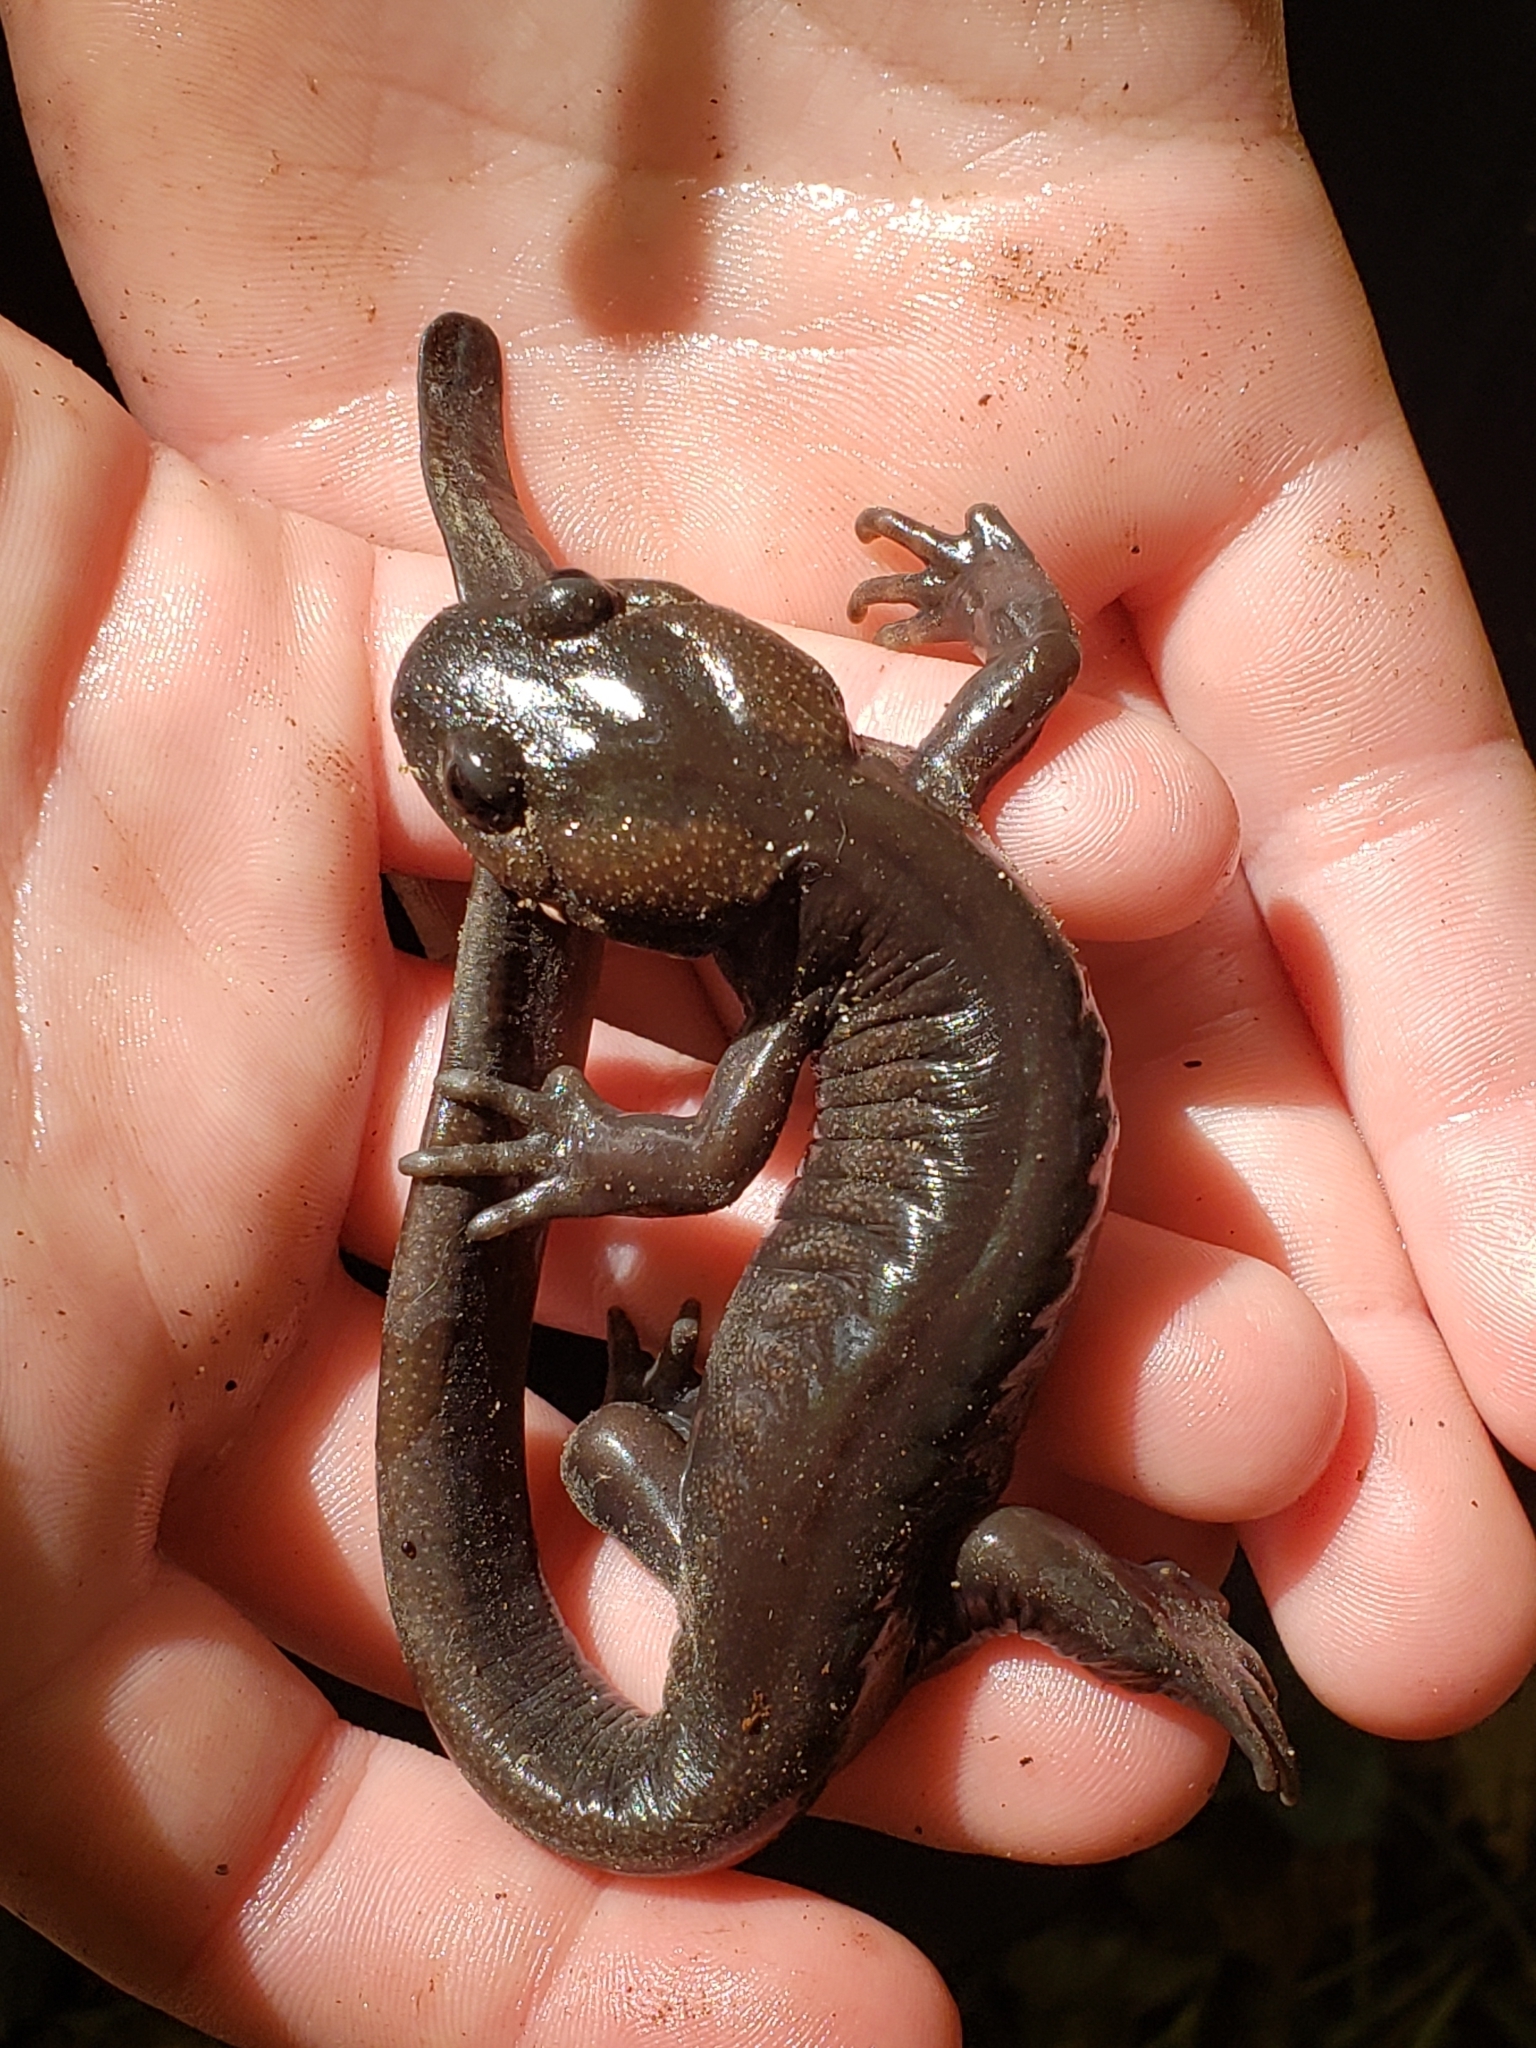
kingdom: Animalia
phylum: Chordata
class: Amphibia
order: Caudata
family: Ambystomatidae
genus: Ambystoma
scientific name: Ambystoma gracile
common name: Northwestern salamander
